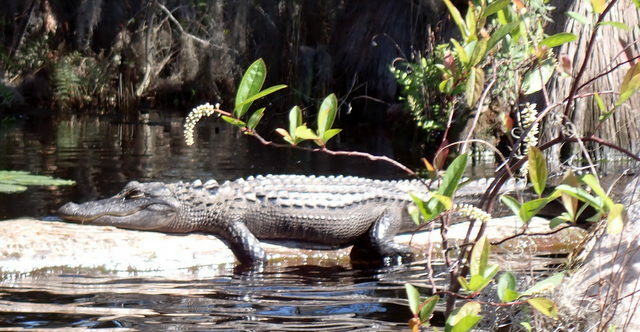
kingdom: Animalia
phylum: Chordata
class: Crocodylia
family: Alligatoridae
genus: Alligator
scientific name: Alligator mississippiensis
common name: American alligator
